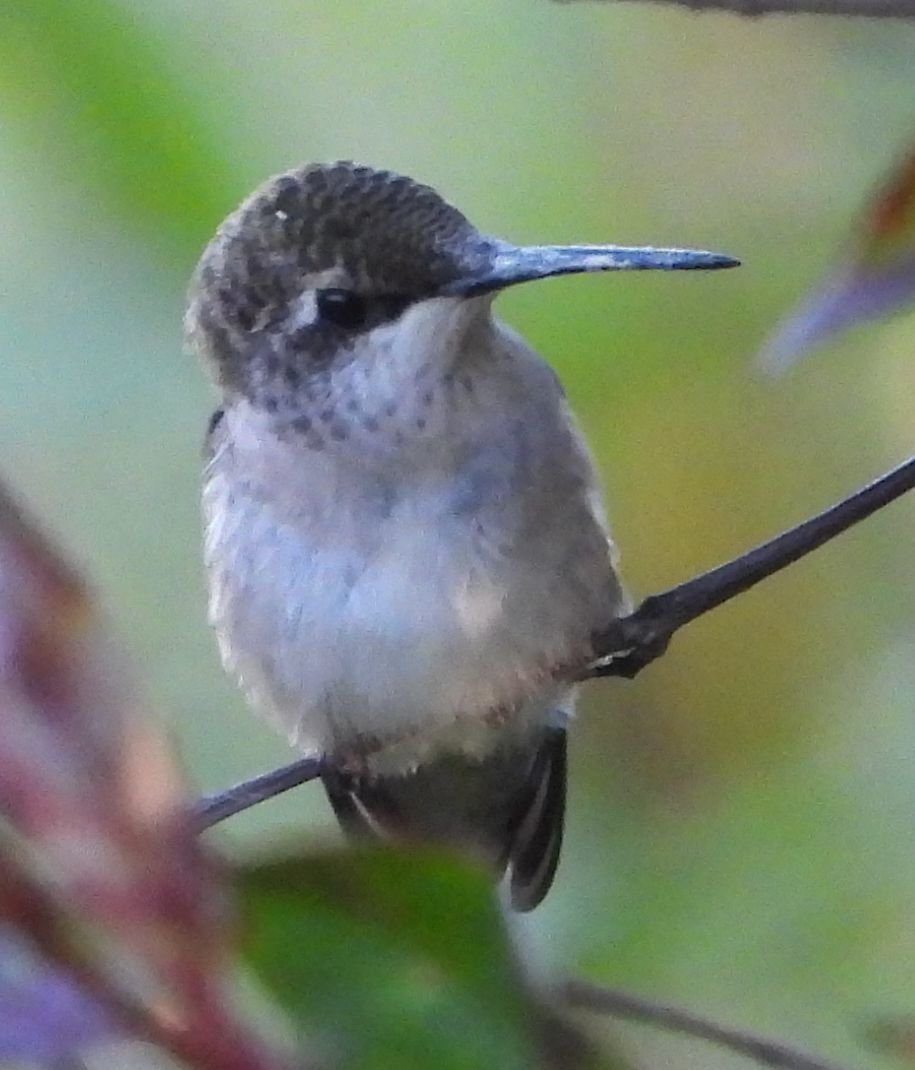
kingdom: Animalia
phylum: Chordata
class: Aves
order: Apodiformes
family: Trochilidae
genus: Archilochus
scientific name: Archilochus colubris
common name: Ruby-throated hummingbird
